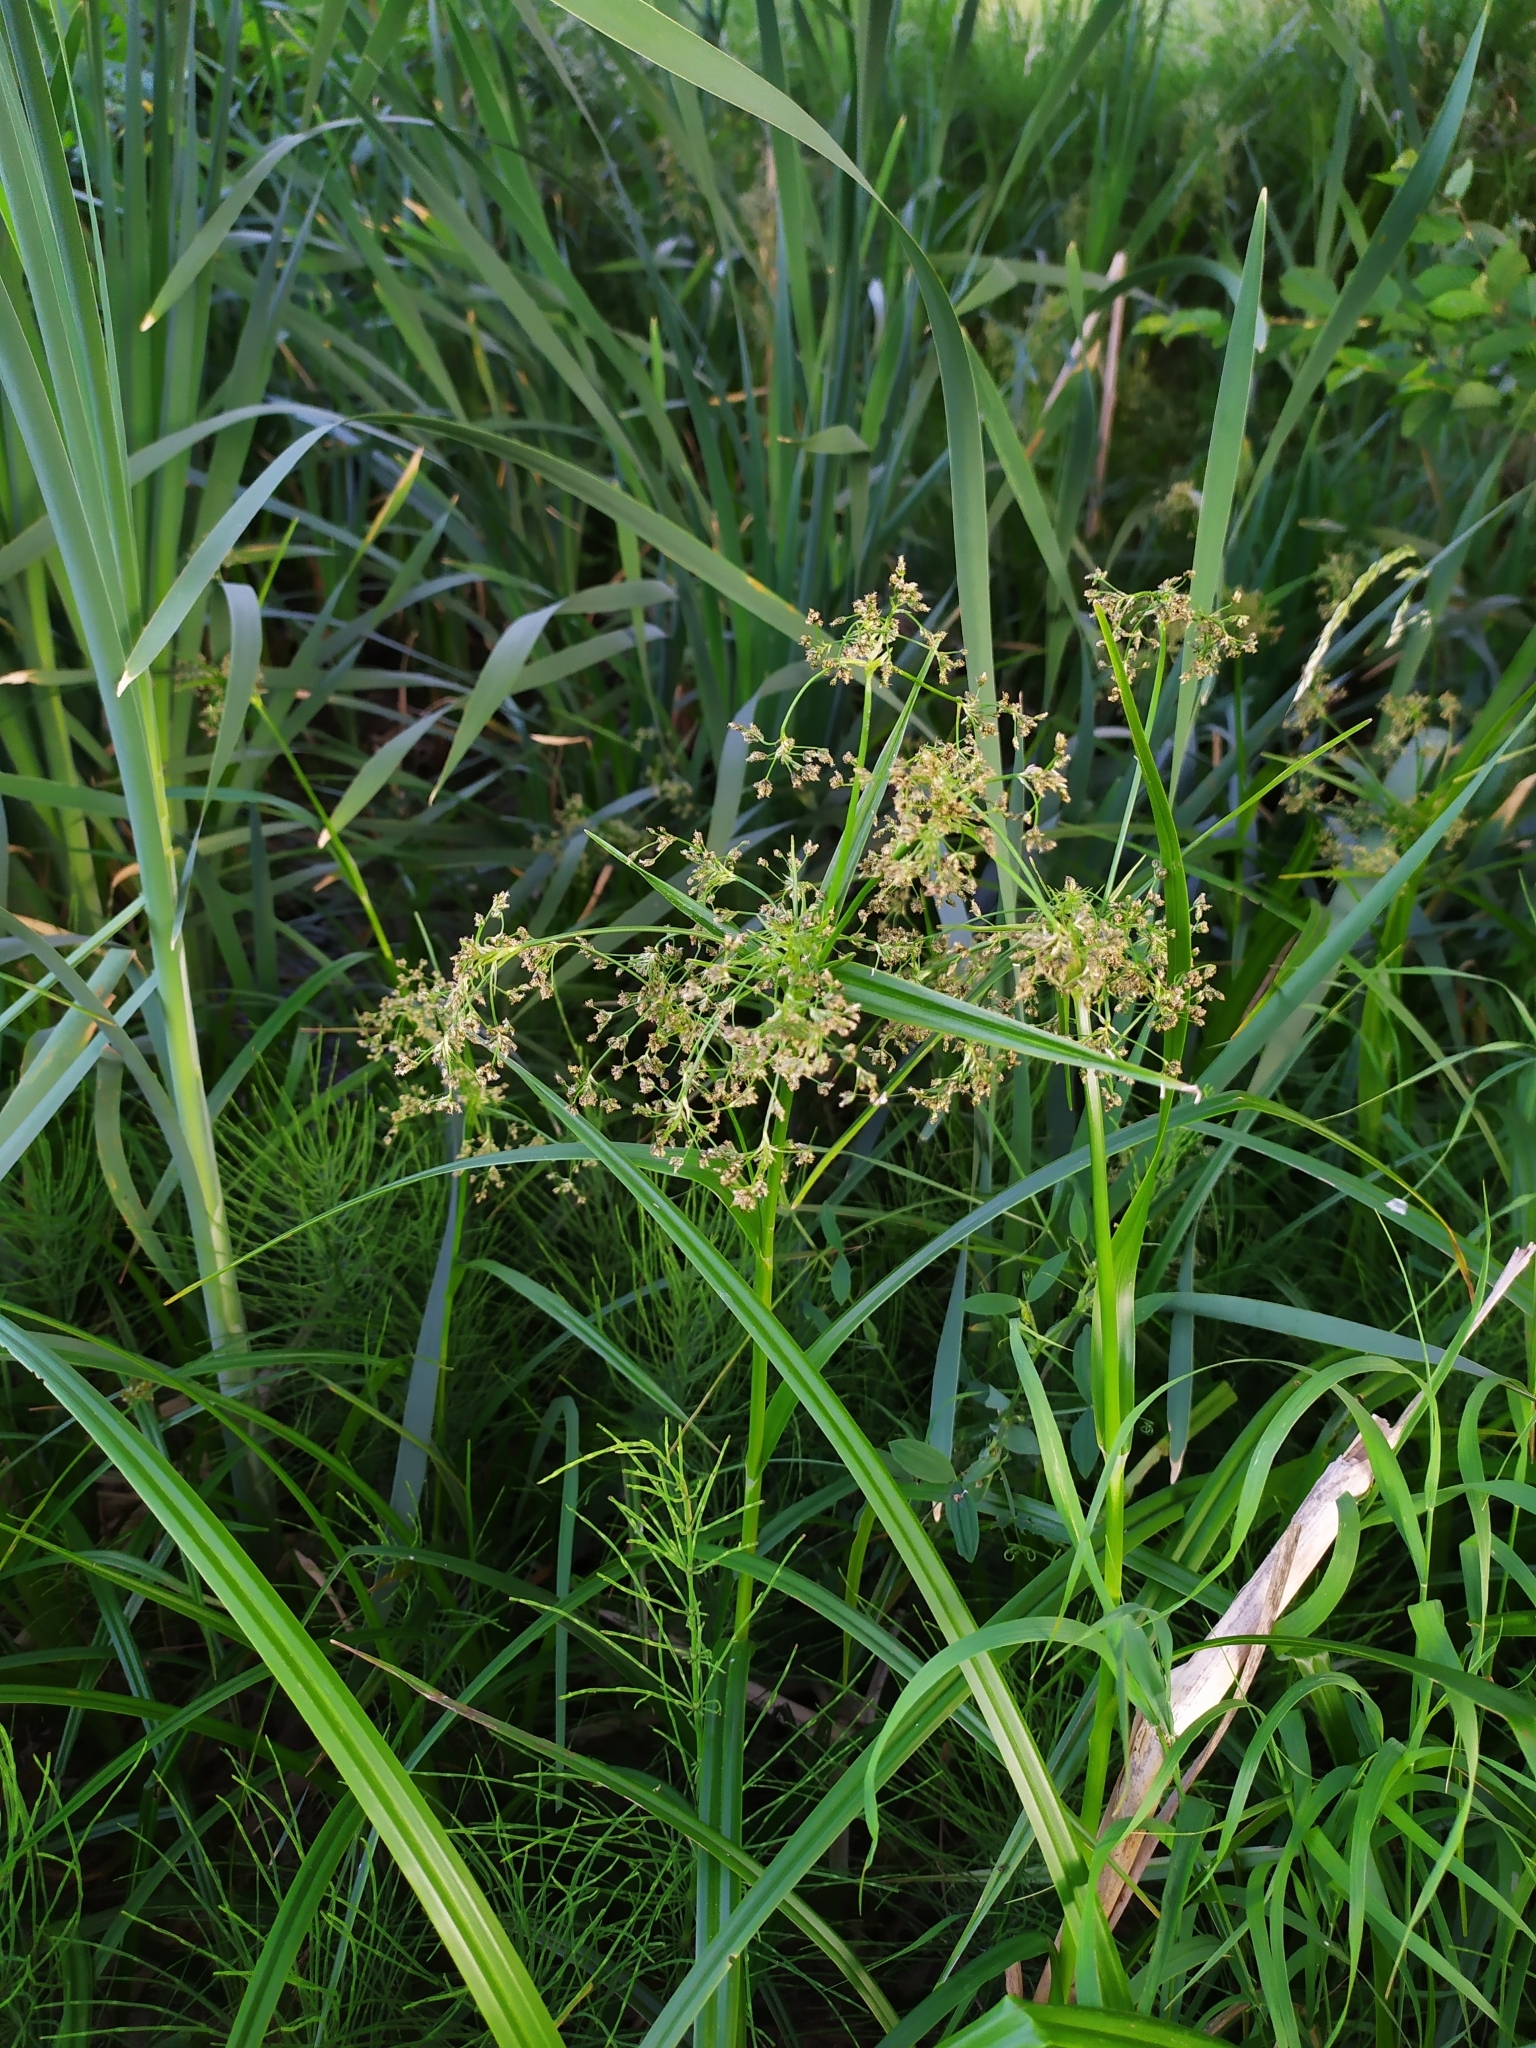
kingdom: Plantae
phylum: Tracheophyta
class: Liliopsida
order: Poales
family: Cyperaceae
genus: Scirpus
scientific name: Scirpus sylvaticus
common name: Wood club-rush
